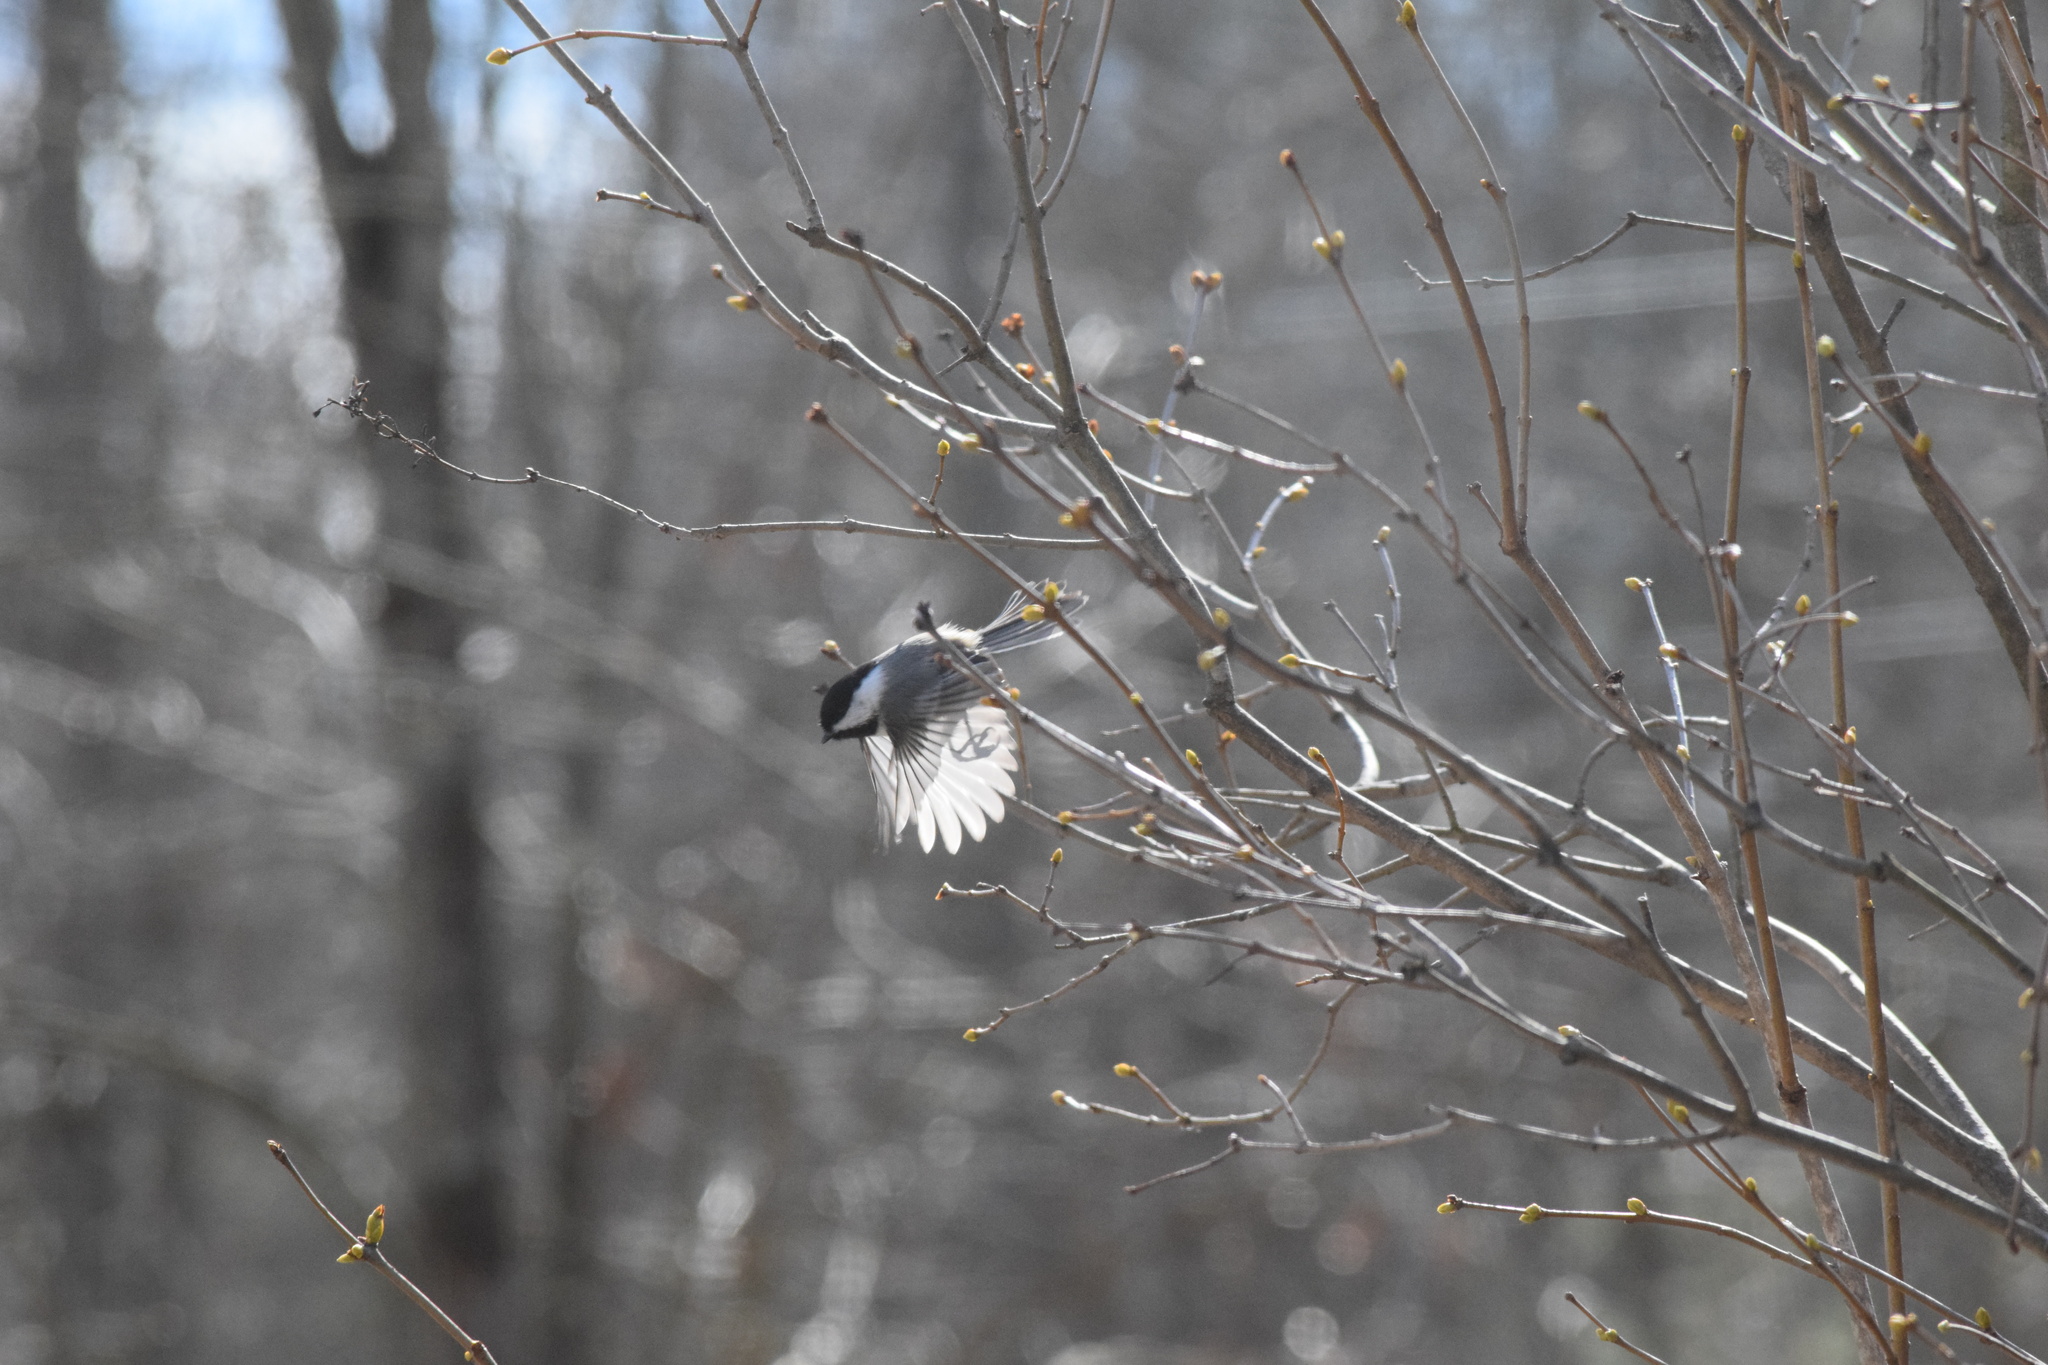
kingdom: Animalia
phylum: Chordata
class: Aves
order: Passeriformes
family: Paridae
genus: Poecile
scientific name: Poecile atricapillus
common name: Black-capped chickadee
